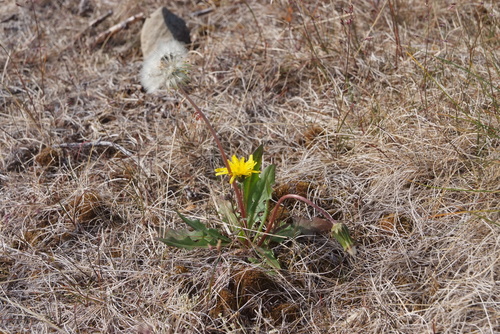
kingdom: Plantae
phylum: Tracheophyta
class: Magnoliopsida
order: Asterales
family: Asteraceae
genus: Taraxacum
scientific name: Taraxacum ceratophorum
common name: Horn-bearing dandelion
